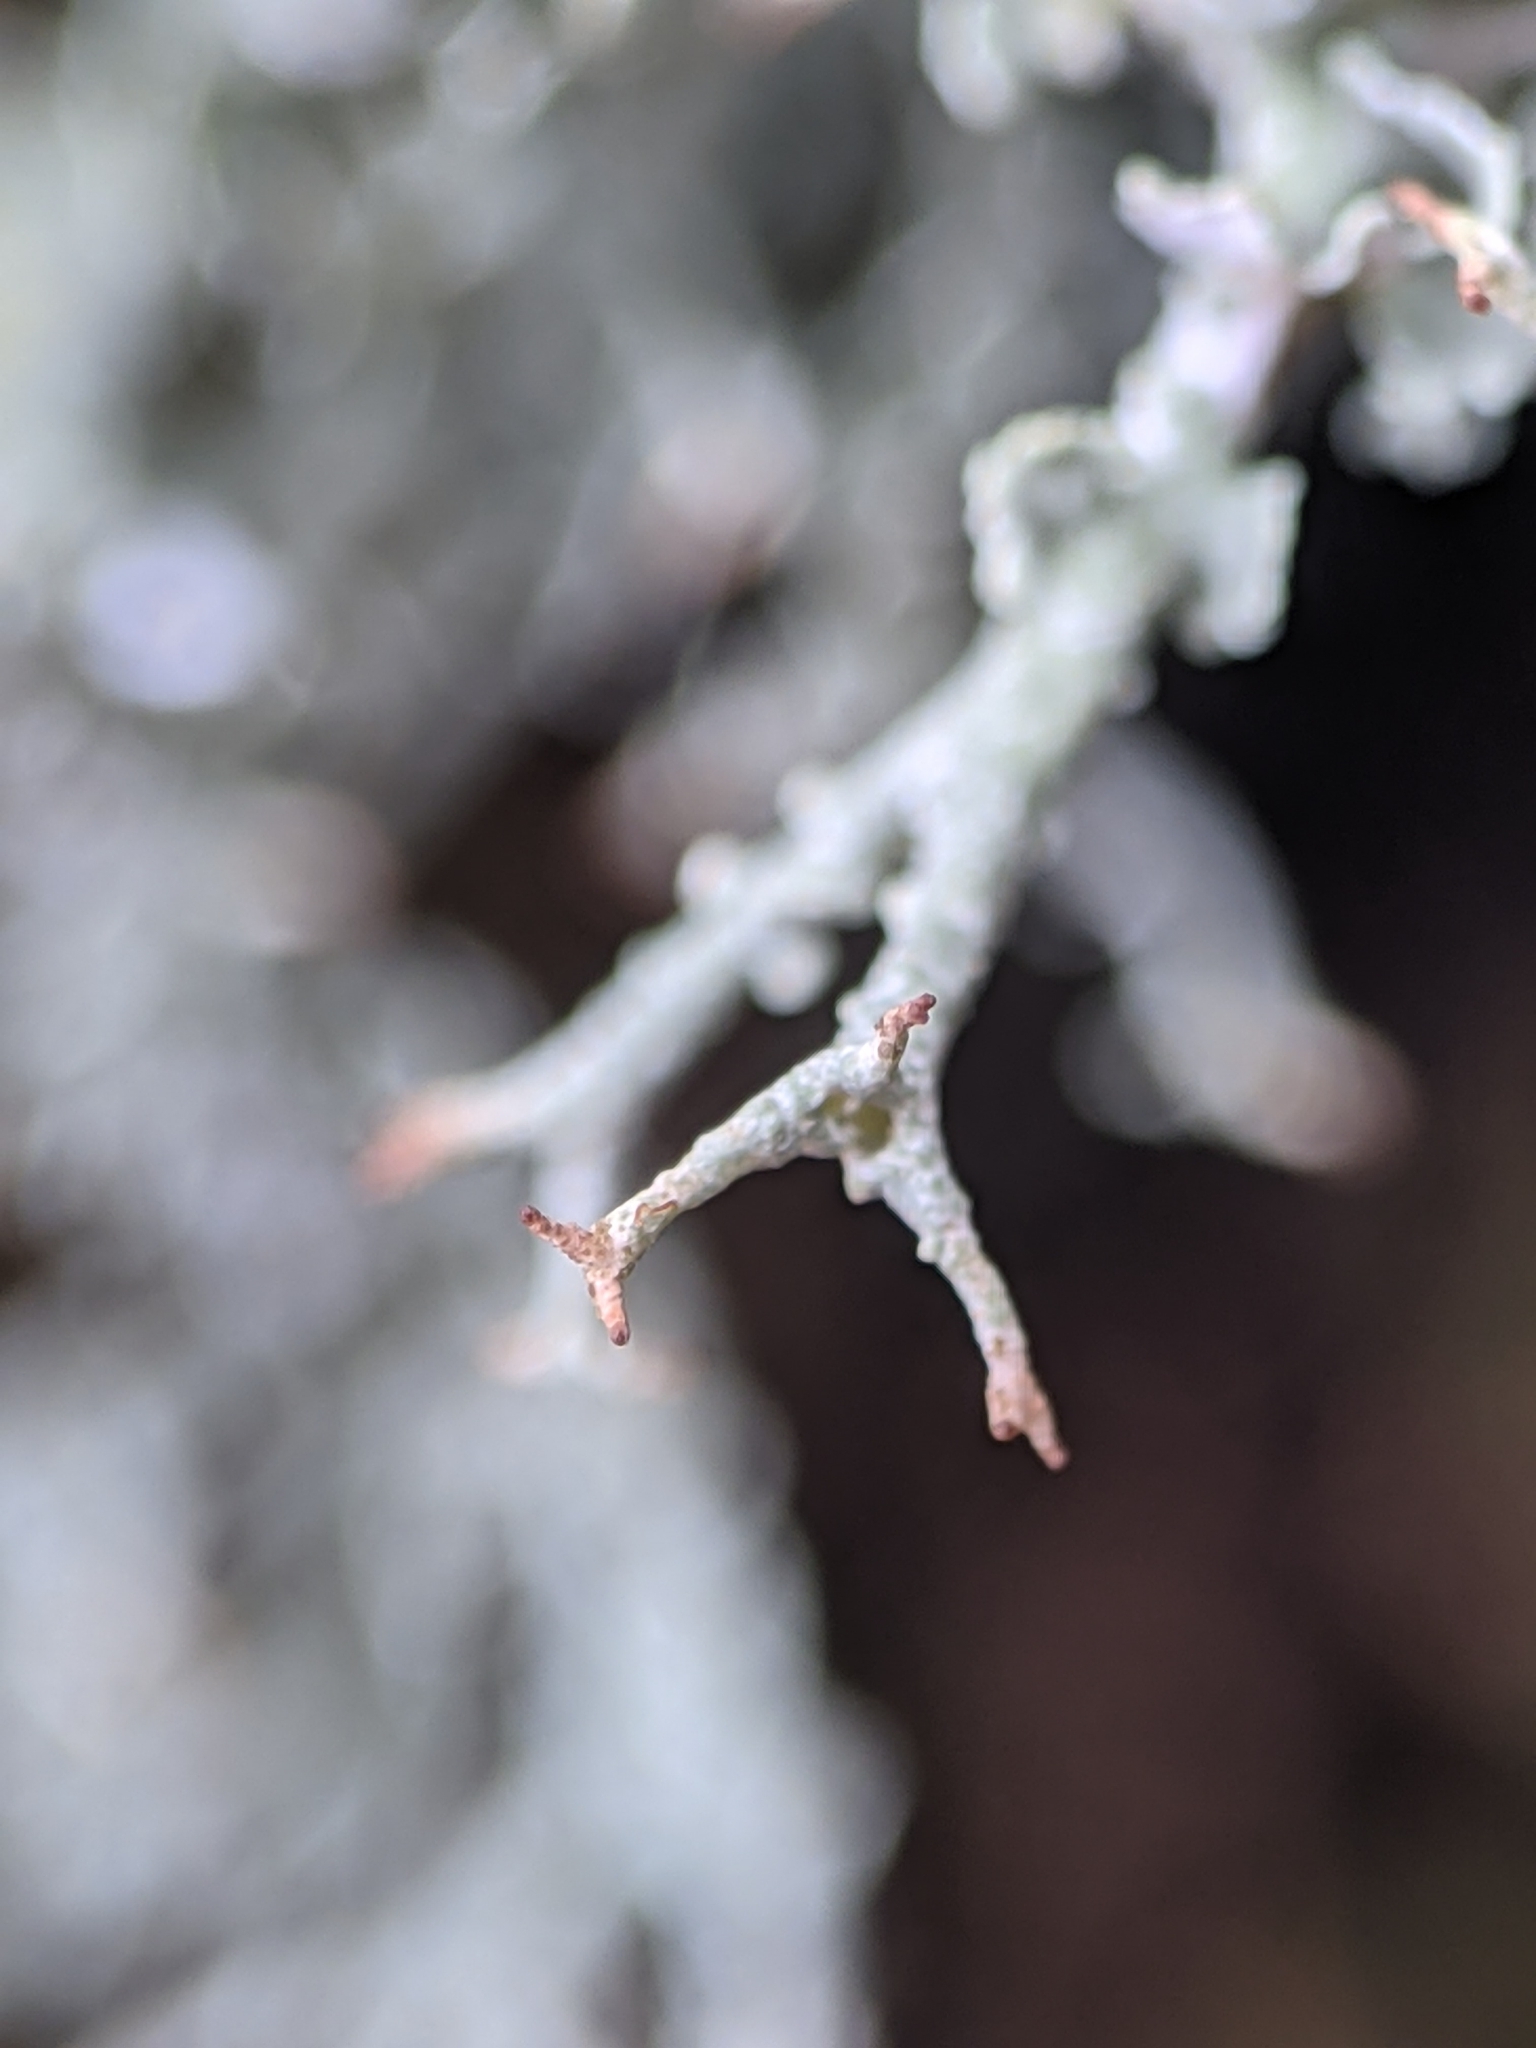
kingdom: Fungi
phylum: Ascomycota
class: Lecanoromycetes
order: Lecanorales
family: Cladoniaceae
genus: Cladonia
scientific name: Cladonia furcata
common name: Many-forked cladonia
